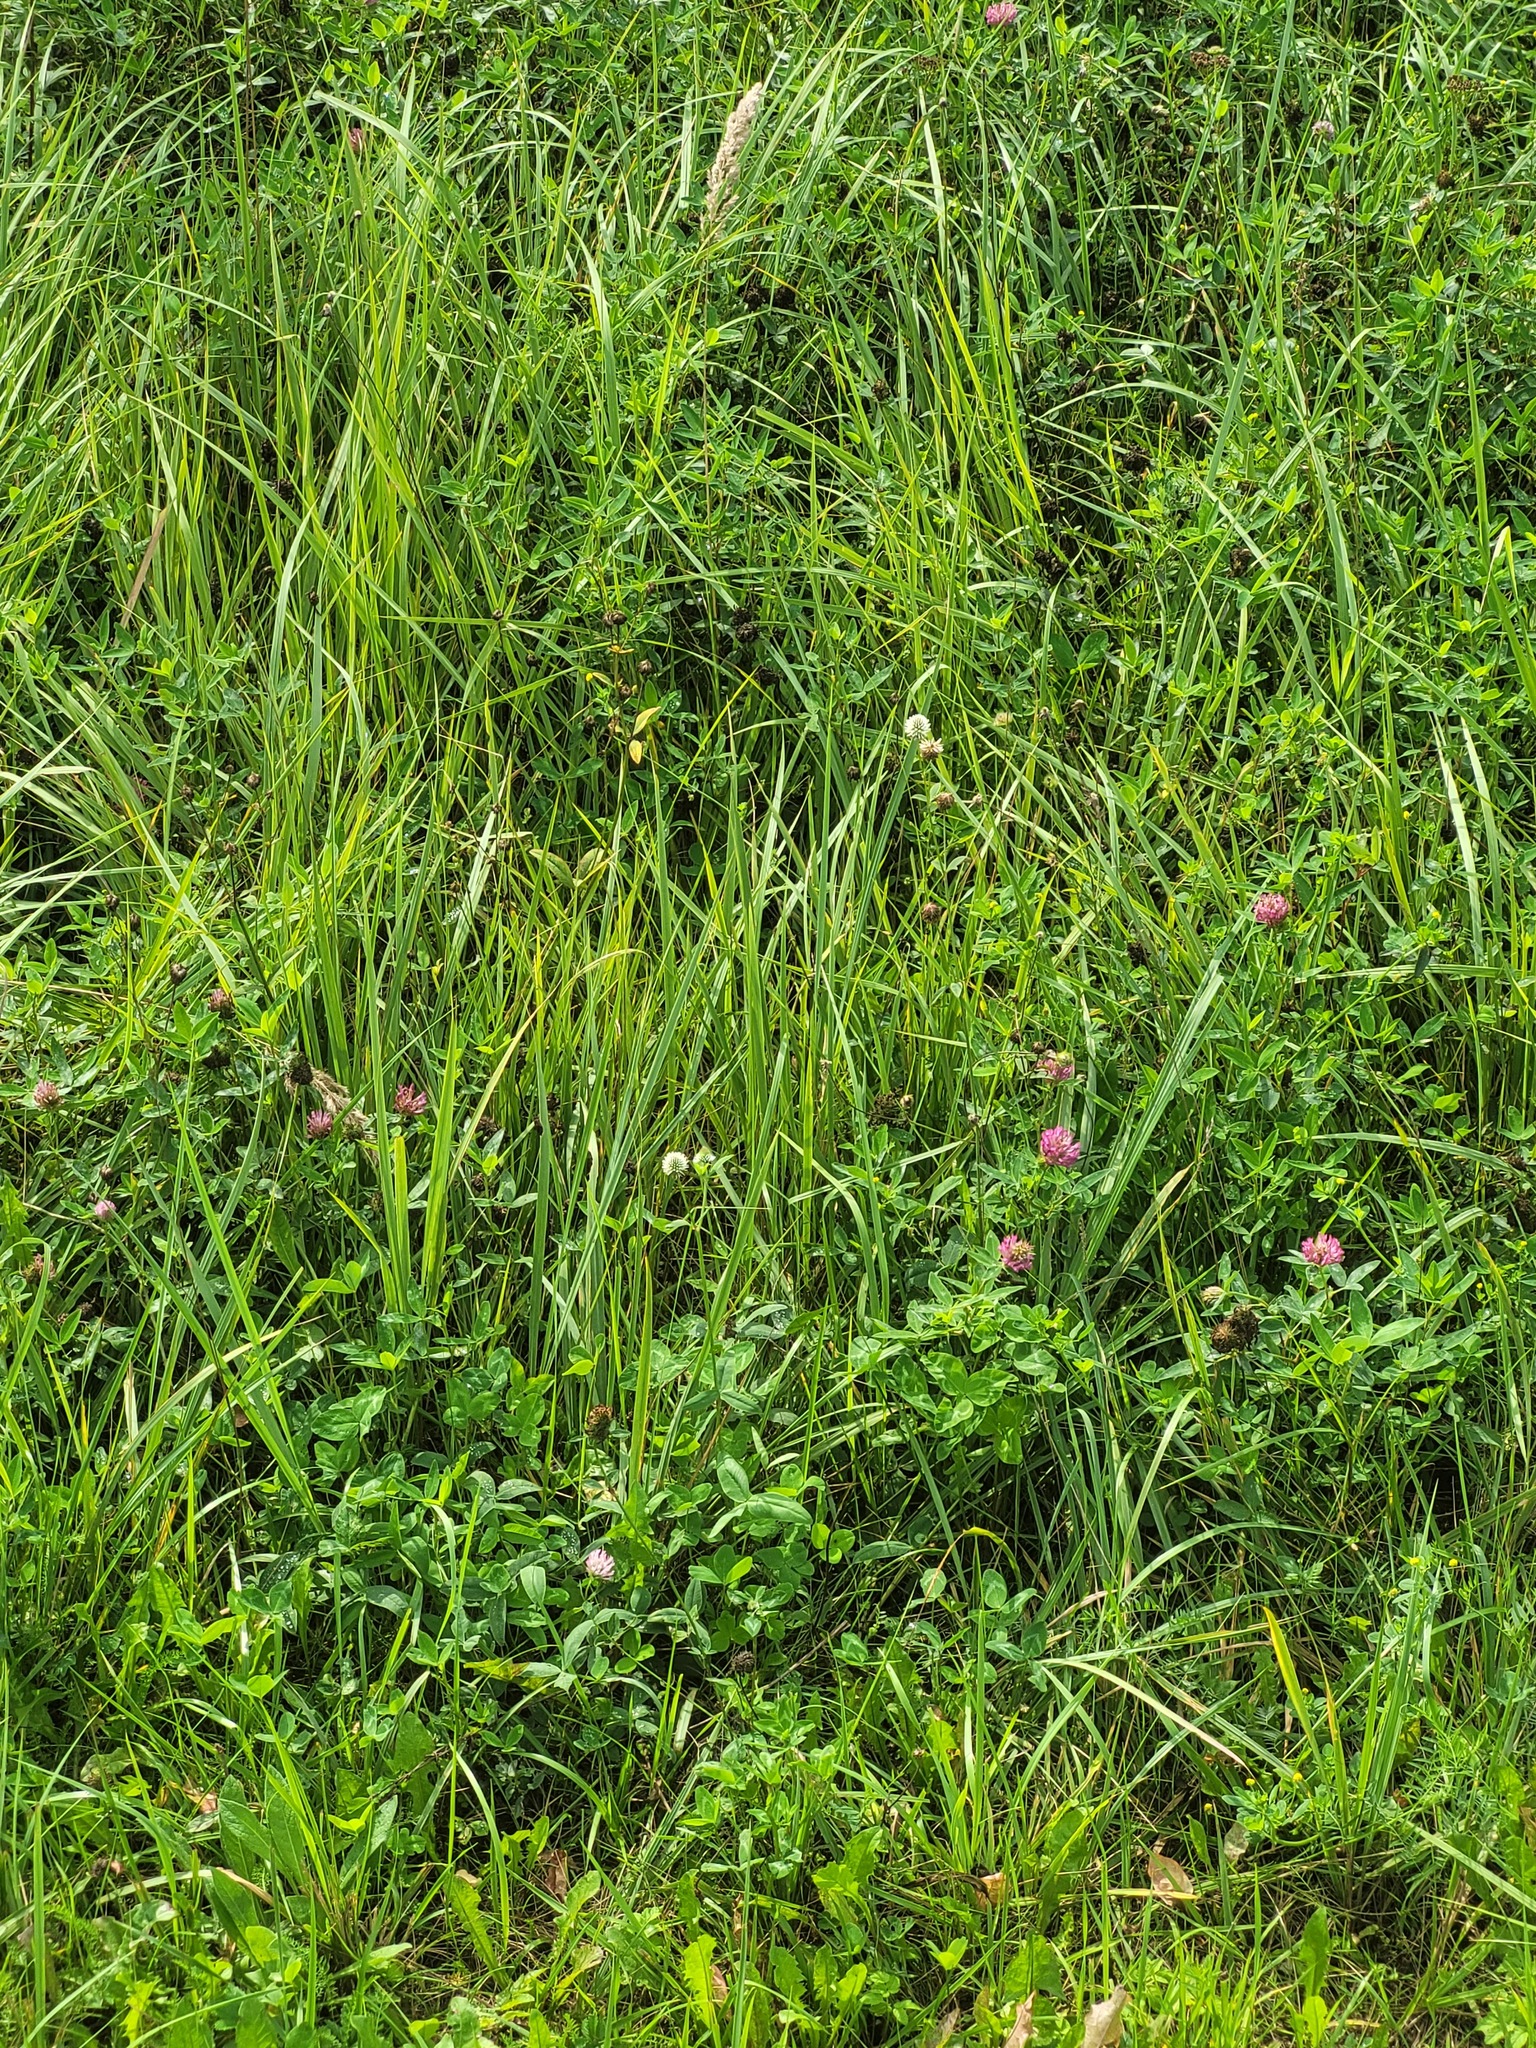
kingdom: Plantae
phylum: Tracheophyta
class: Magnoliopsida
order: Fabales
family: Fabaceae
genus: Trifolium
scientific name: Trifolium montanum
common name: Mountain clover
